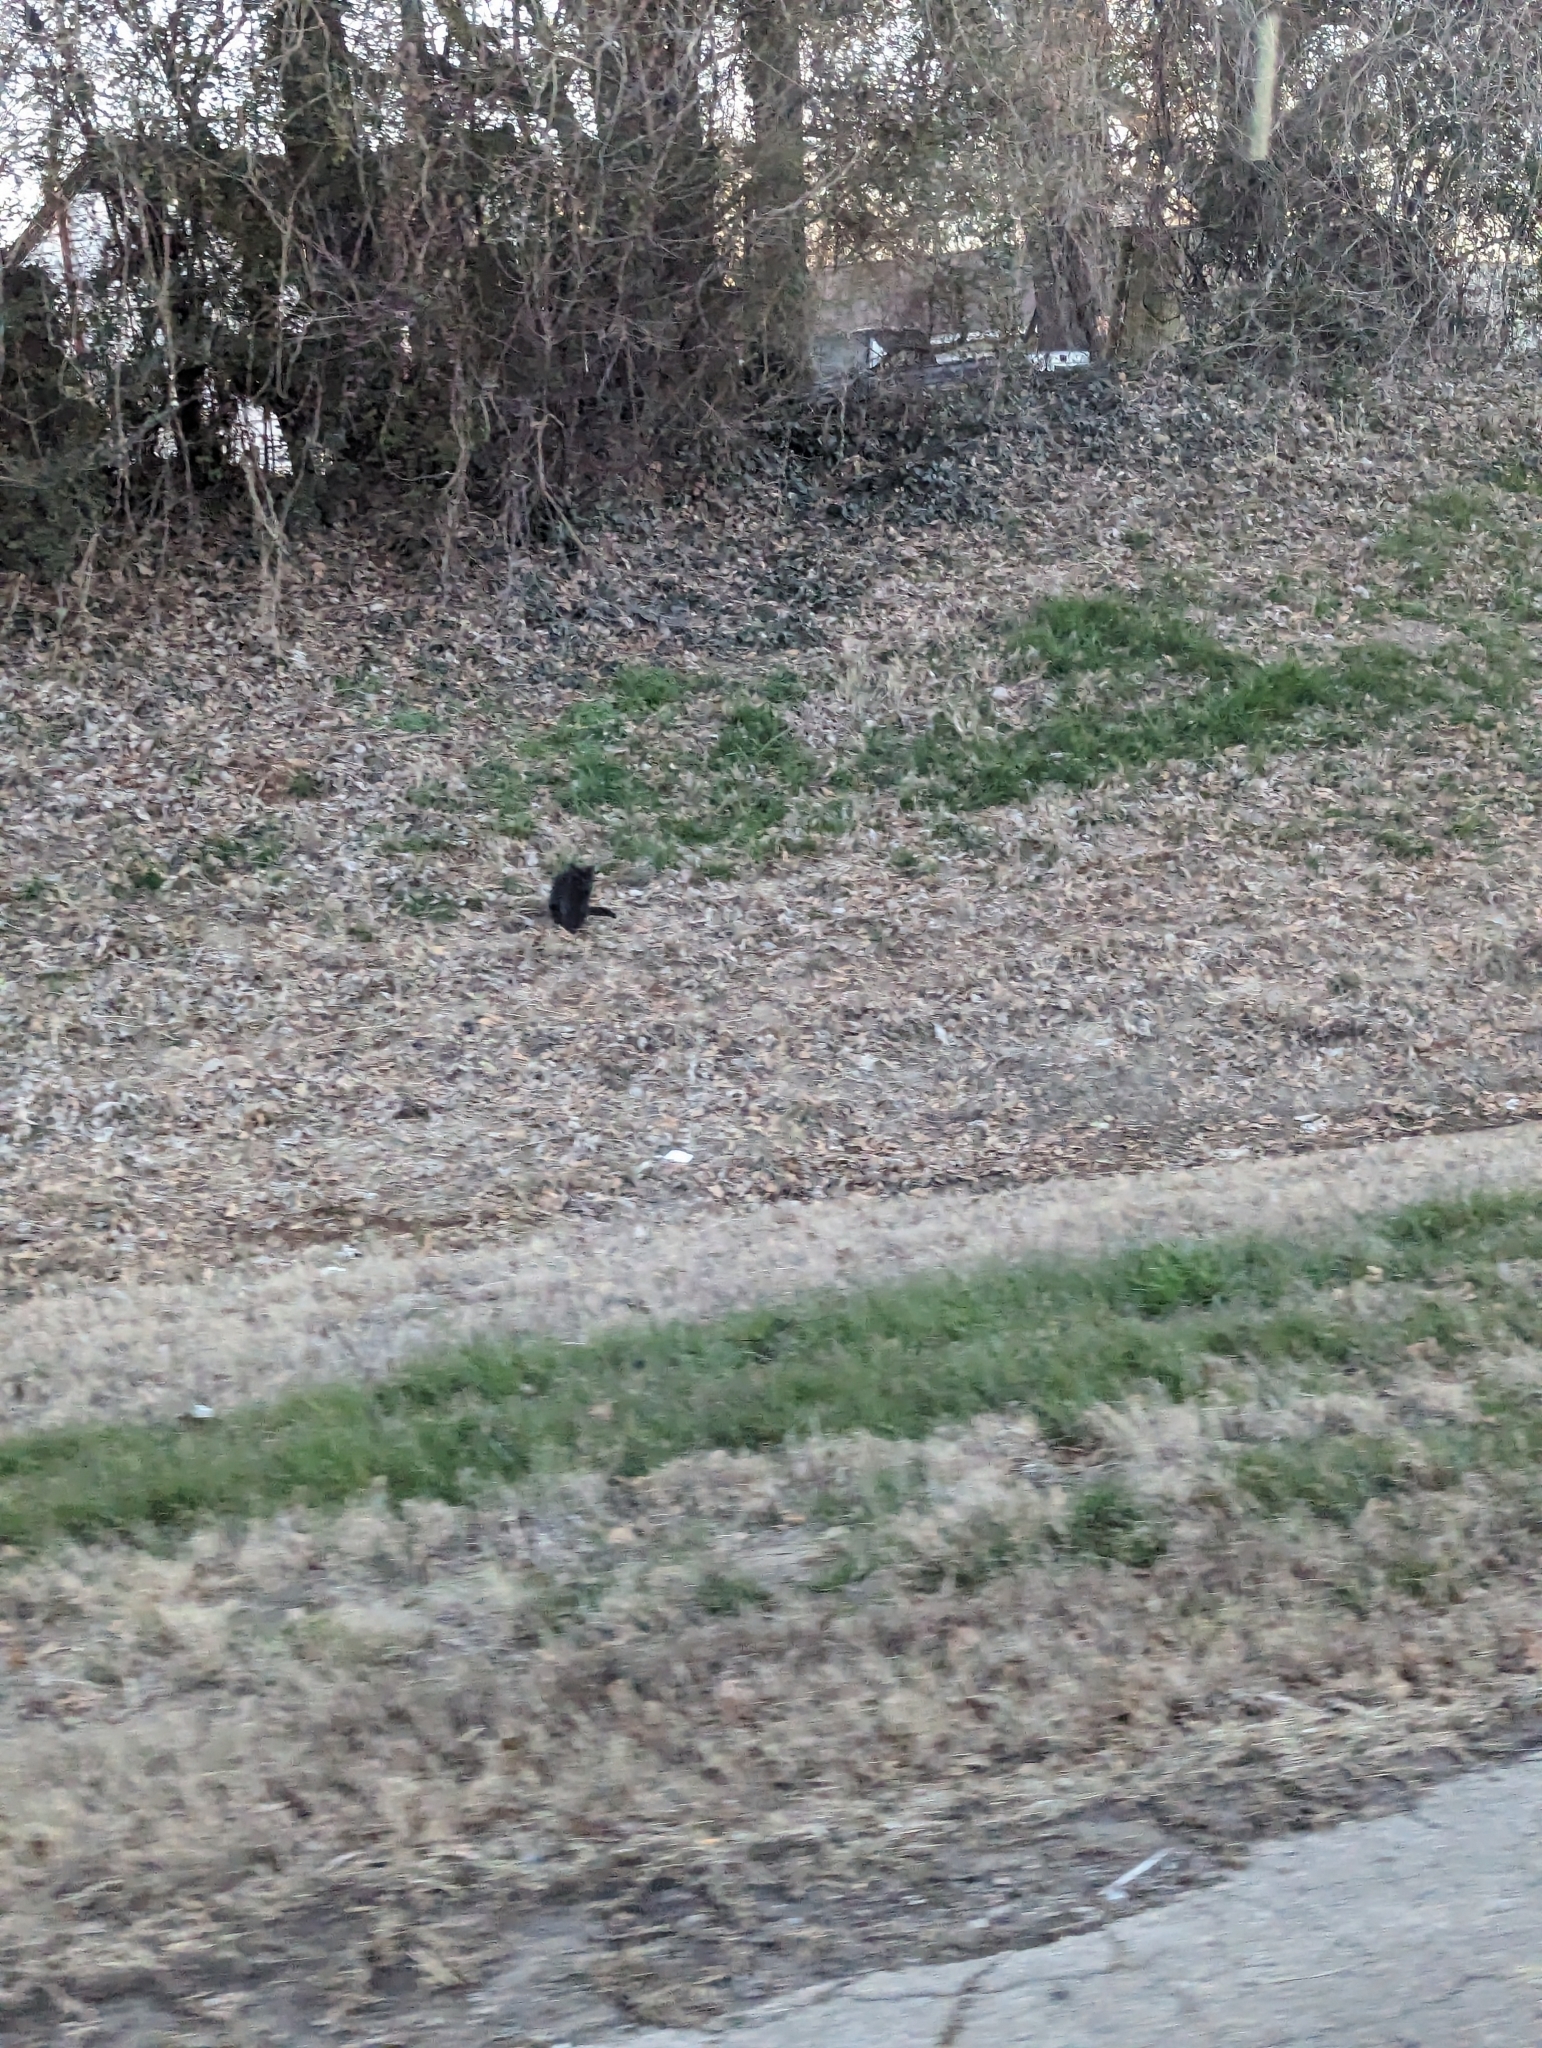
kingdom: Animalia
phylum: Chordata
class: Mammalia
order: Carnivora
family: Felidae
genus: Felis
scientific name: Felis catus
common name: Domestic cat
